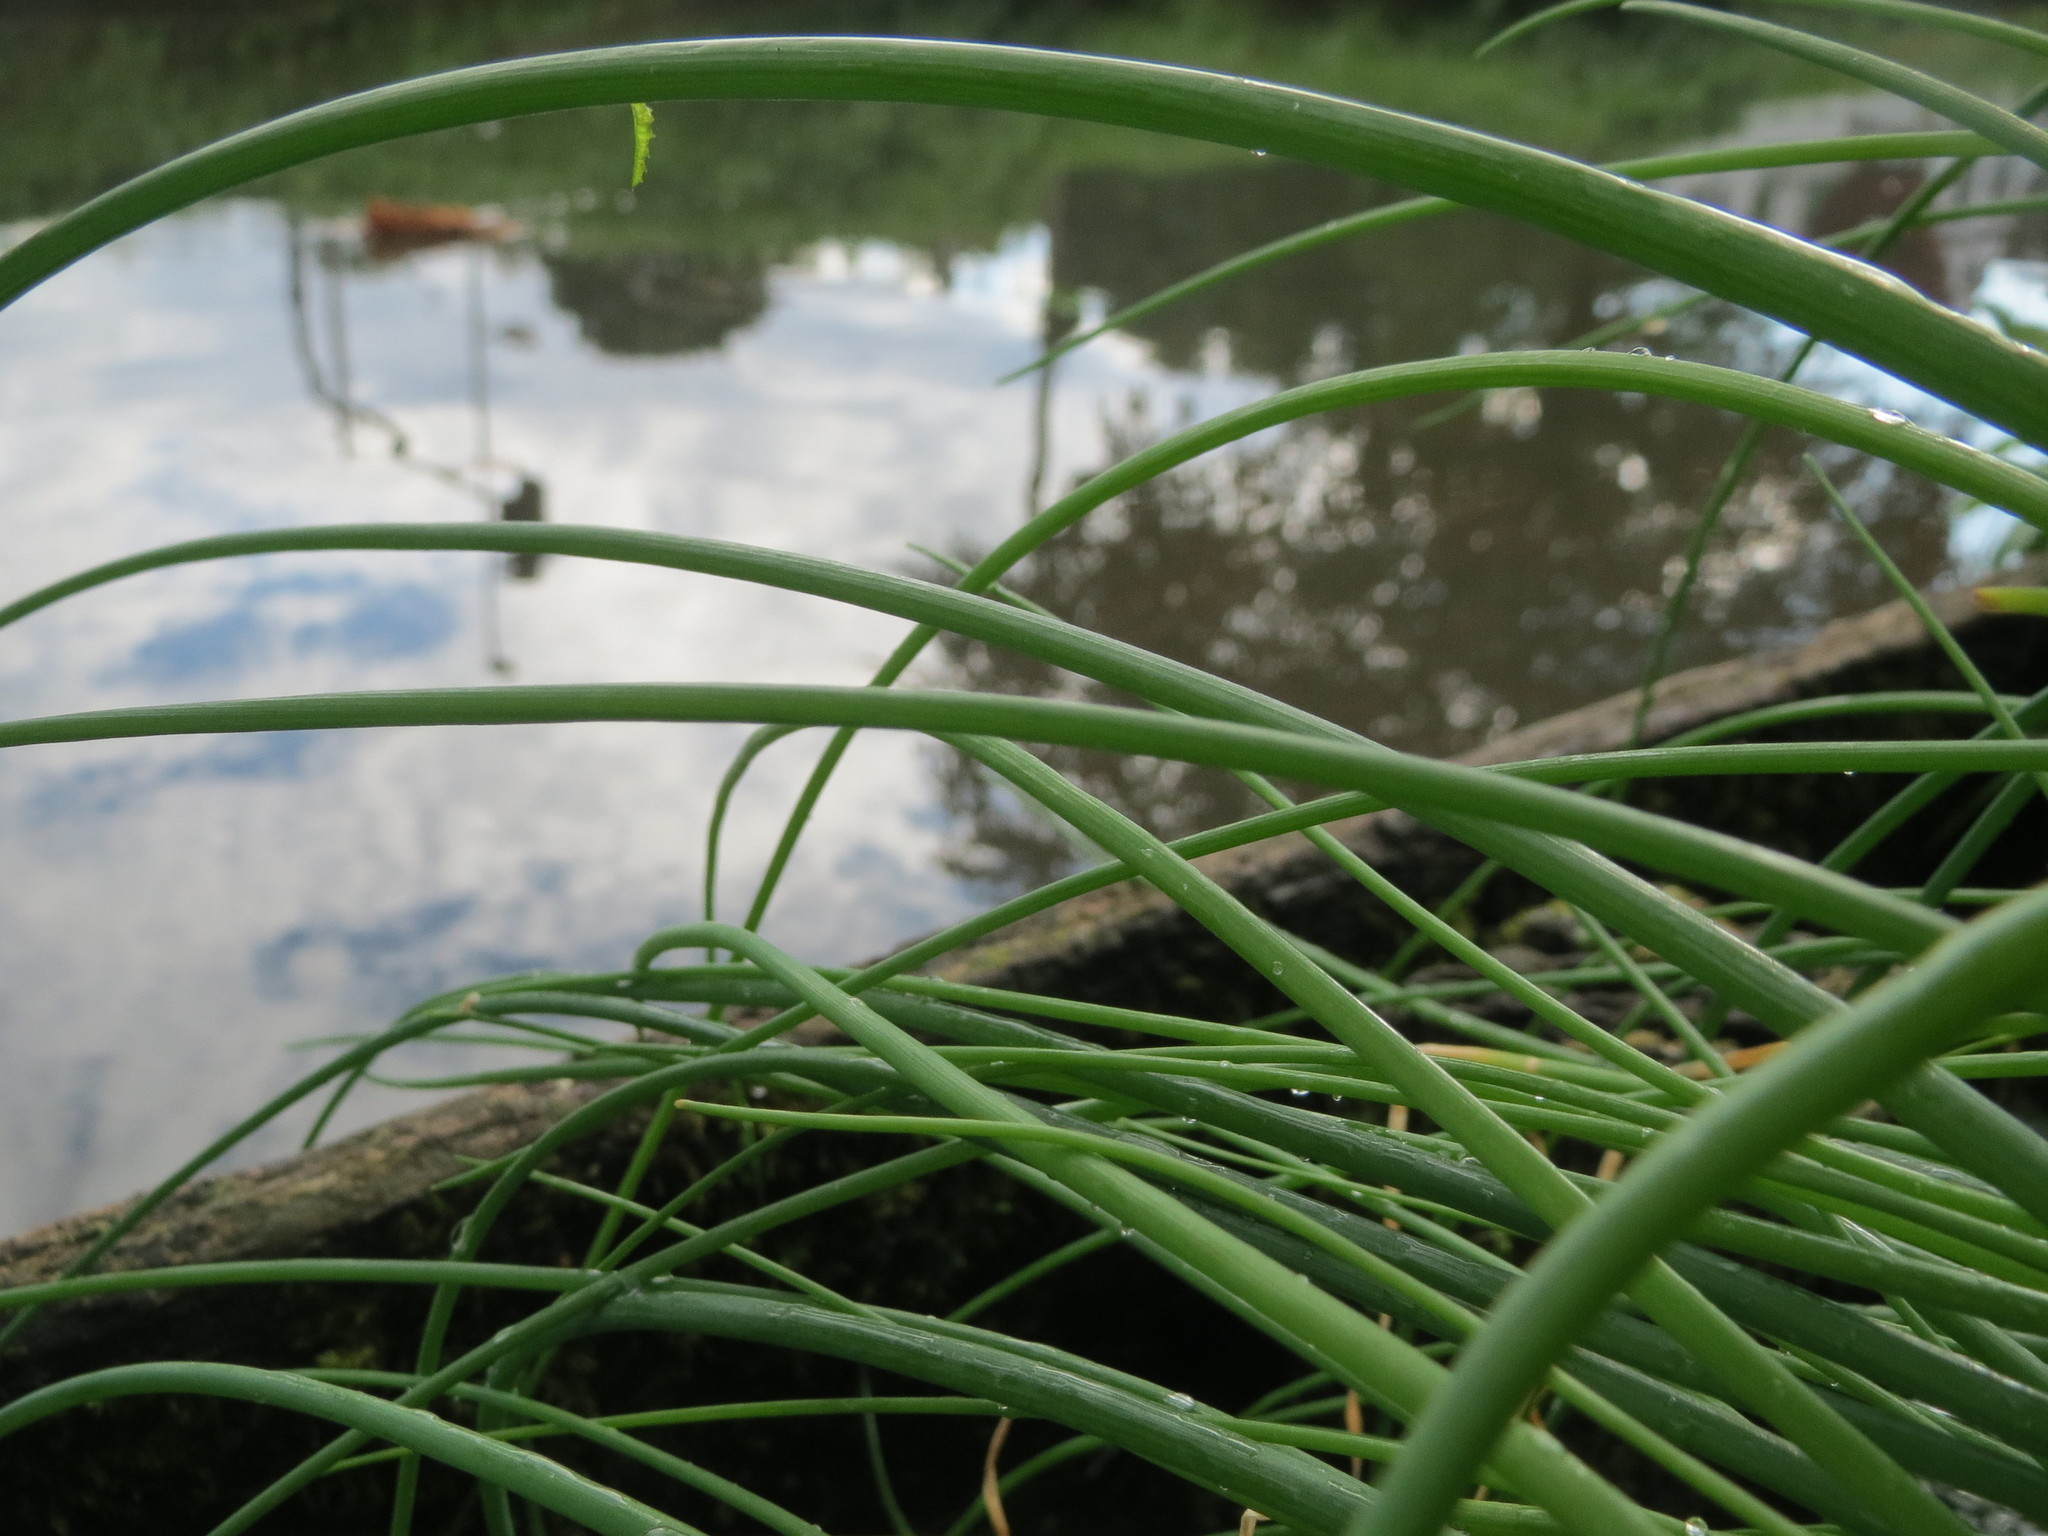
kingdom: Plantae
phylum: Tracheophyta
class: Liliopsida
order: Asparagales
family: Amaryllidaceae
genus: Allium
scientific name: Allium schoenoprasum
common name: Chives
